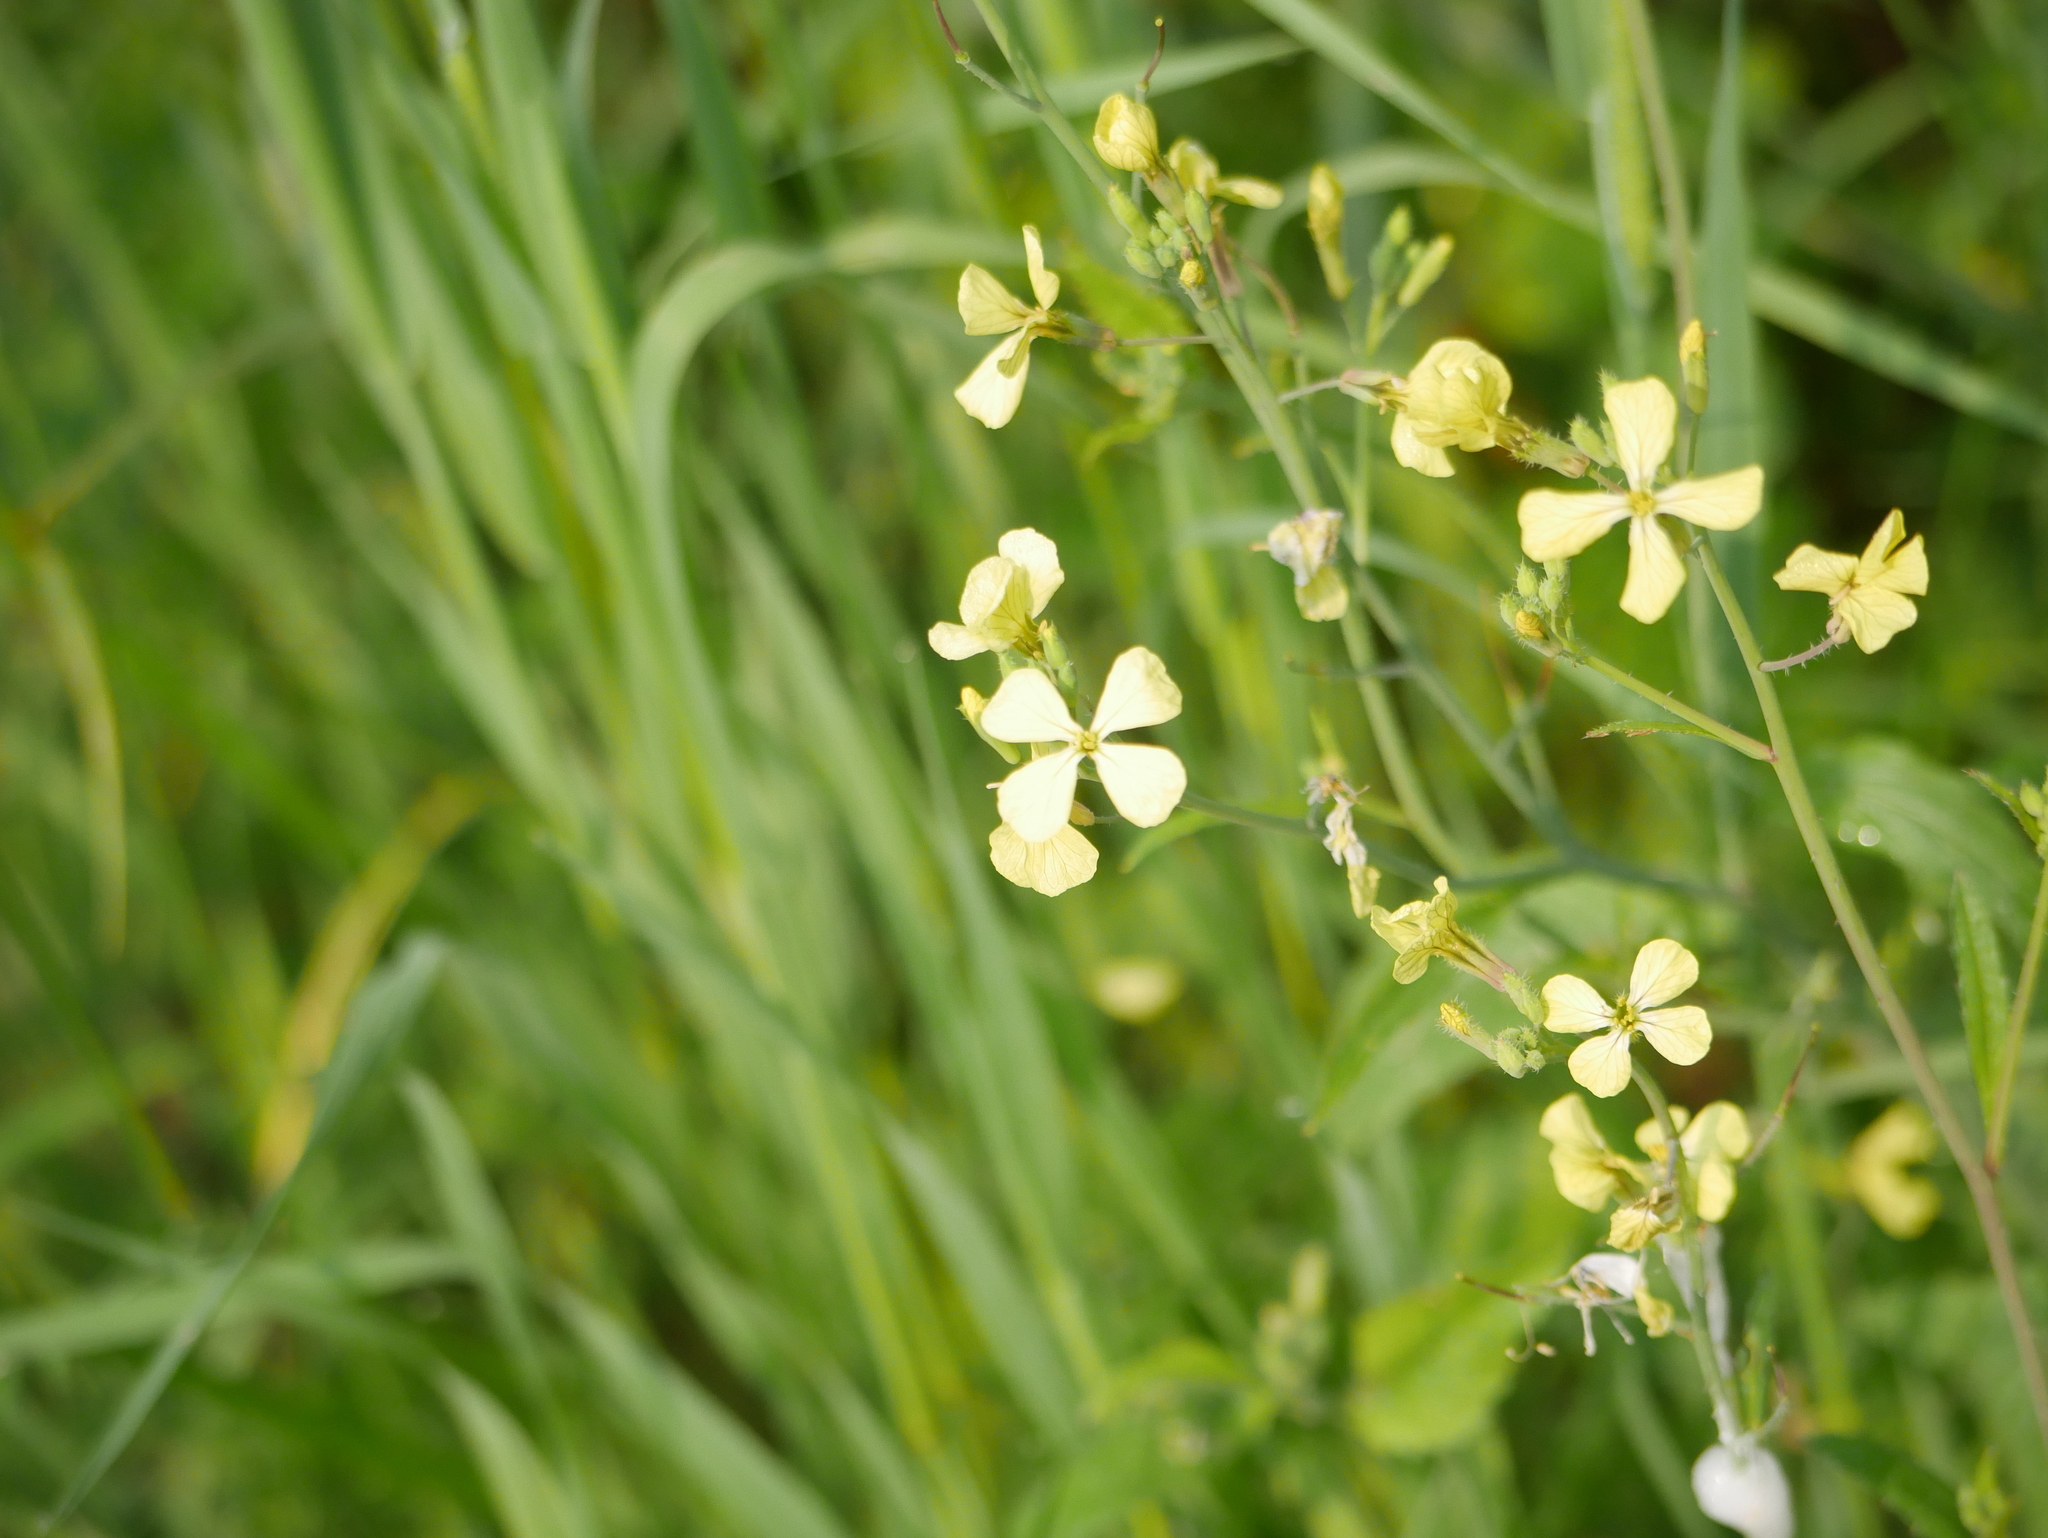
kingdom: Plantae
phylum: Tracheophyta
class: Magnoliopsida
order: Brassicales
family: Brassicaceae
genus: Raphanus
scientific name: Raphanus raphanistrum
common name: Wild radish
